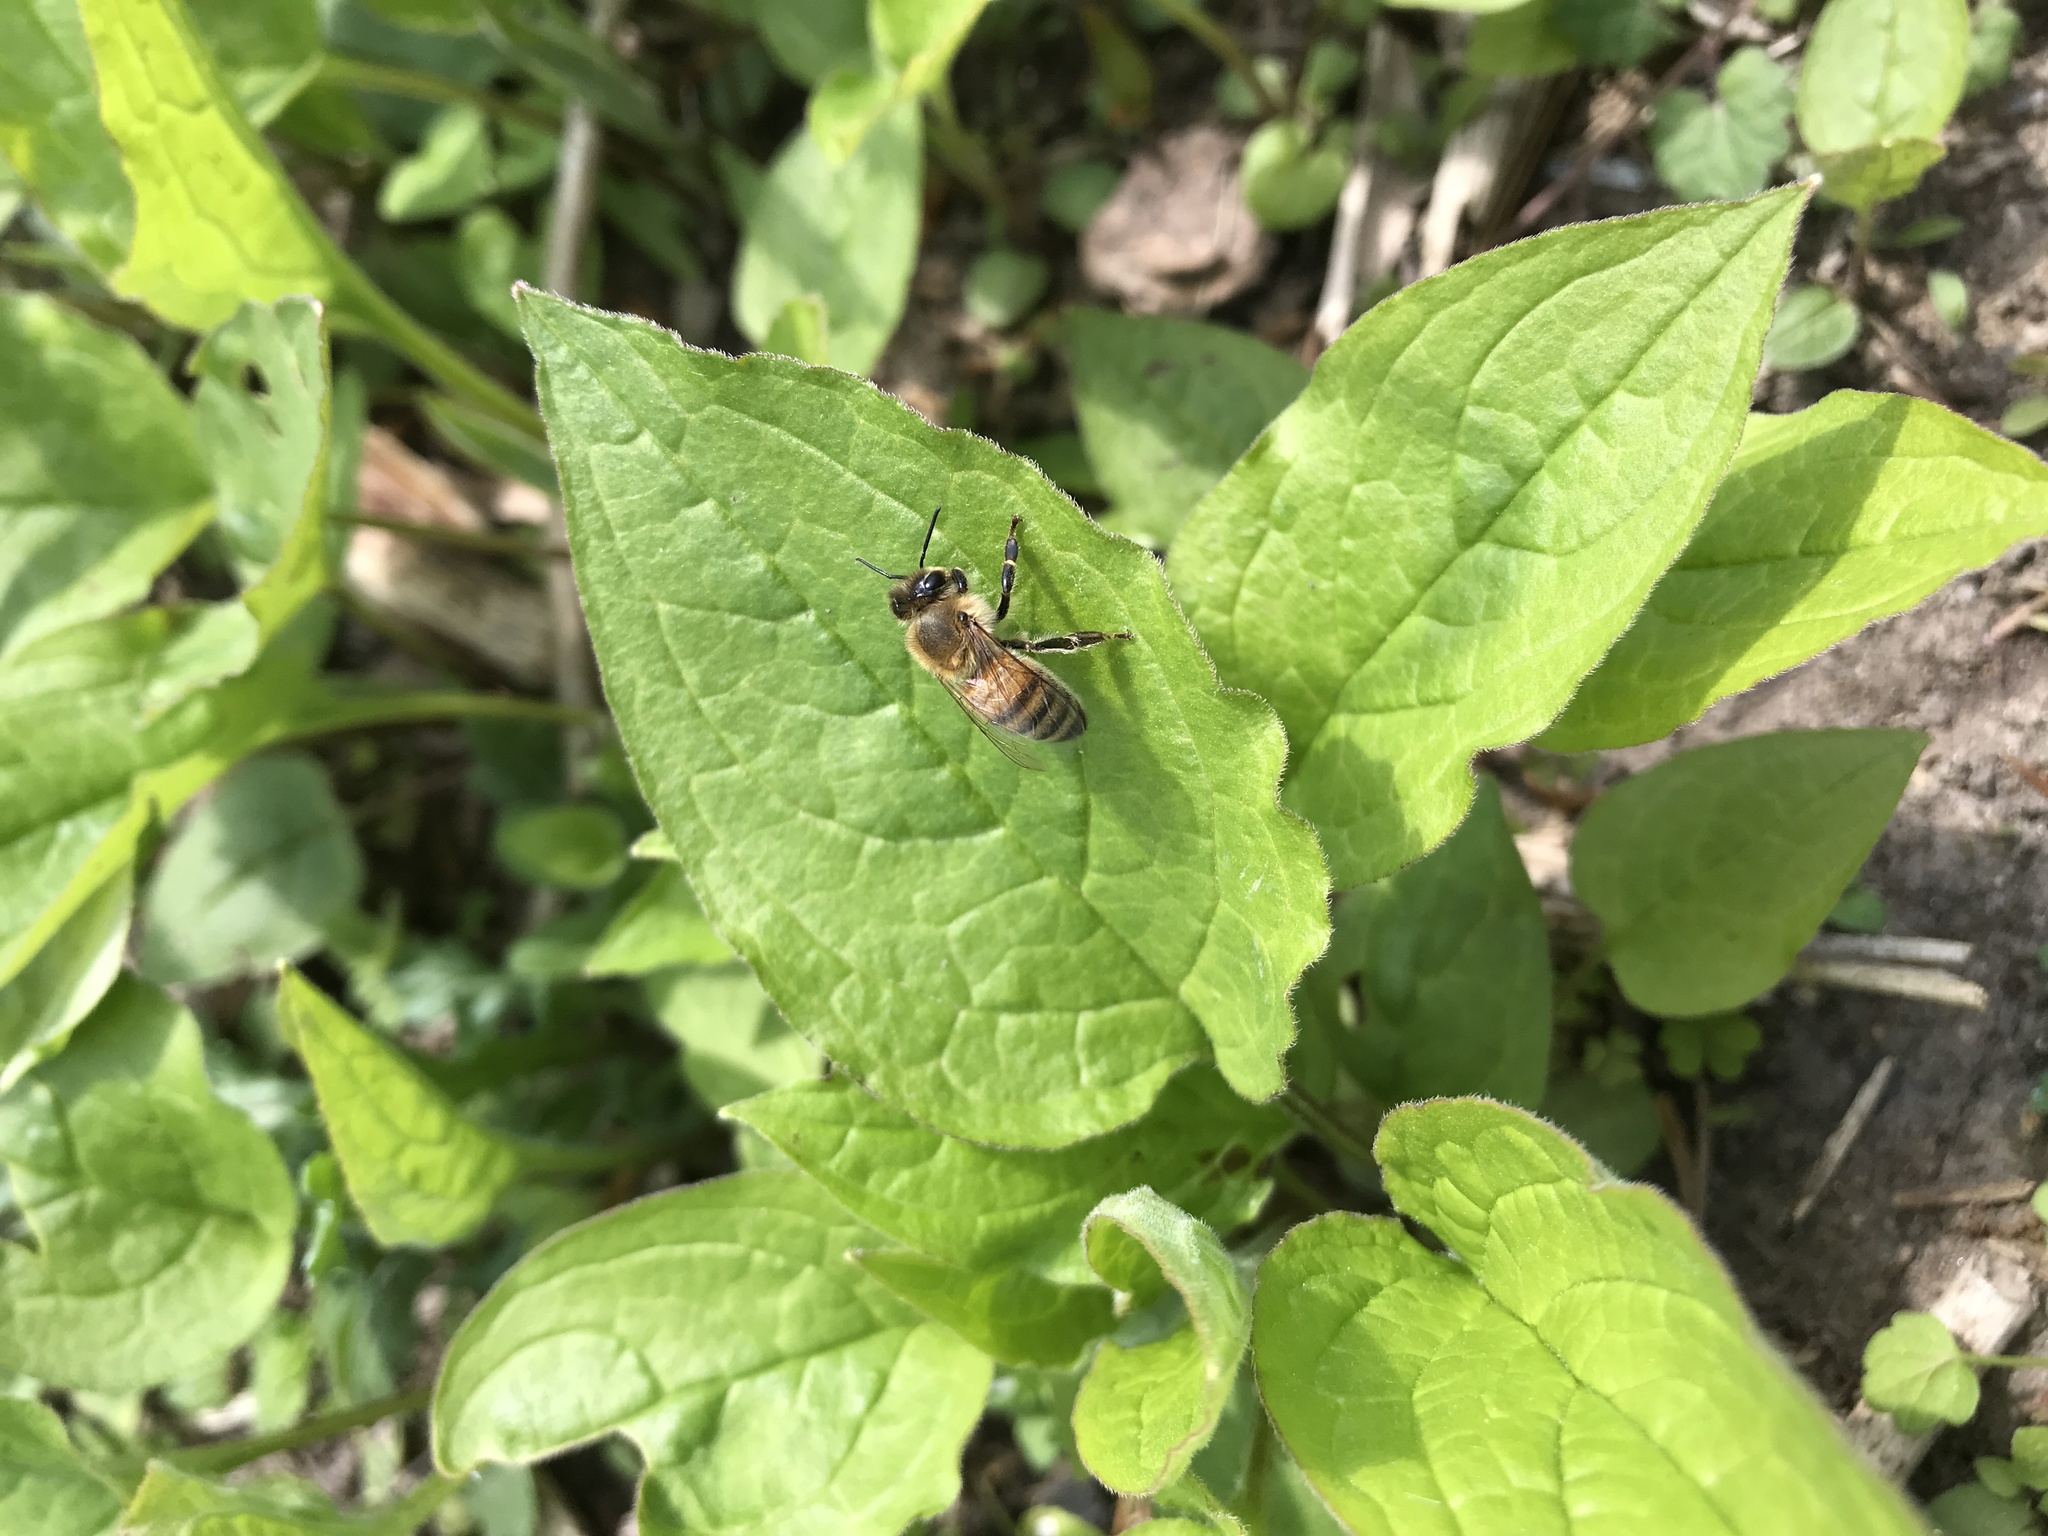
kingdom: Animalia
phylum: Arthropoda
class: Insecta
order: Hymenoptera
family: Apidae
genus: Apis
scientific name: Apis mellifera
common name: Honey bee
